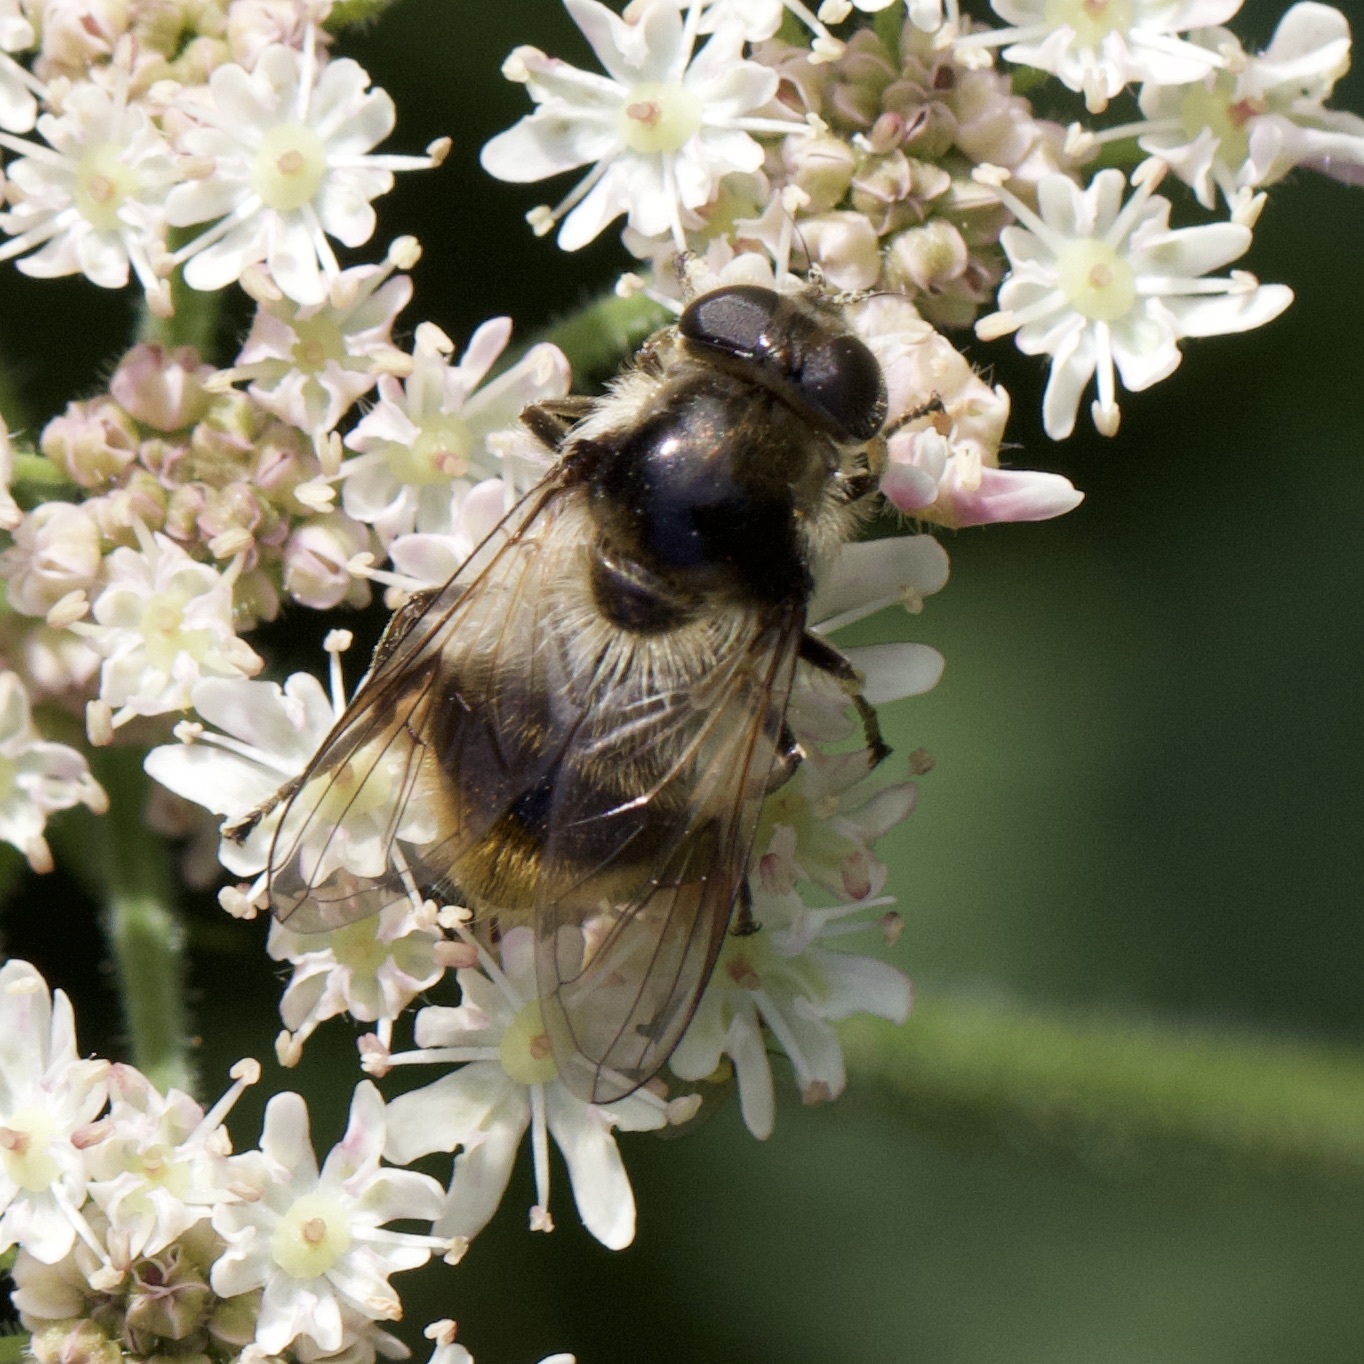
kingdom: Animalia
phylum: Arthropoda
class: Insecta
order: Diptera
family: Syrphidae
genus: Cheilosia
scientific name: Cheilosia illustrata
